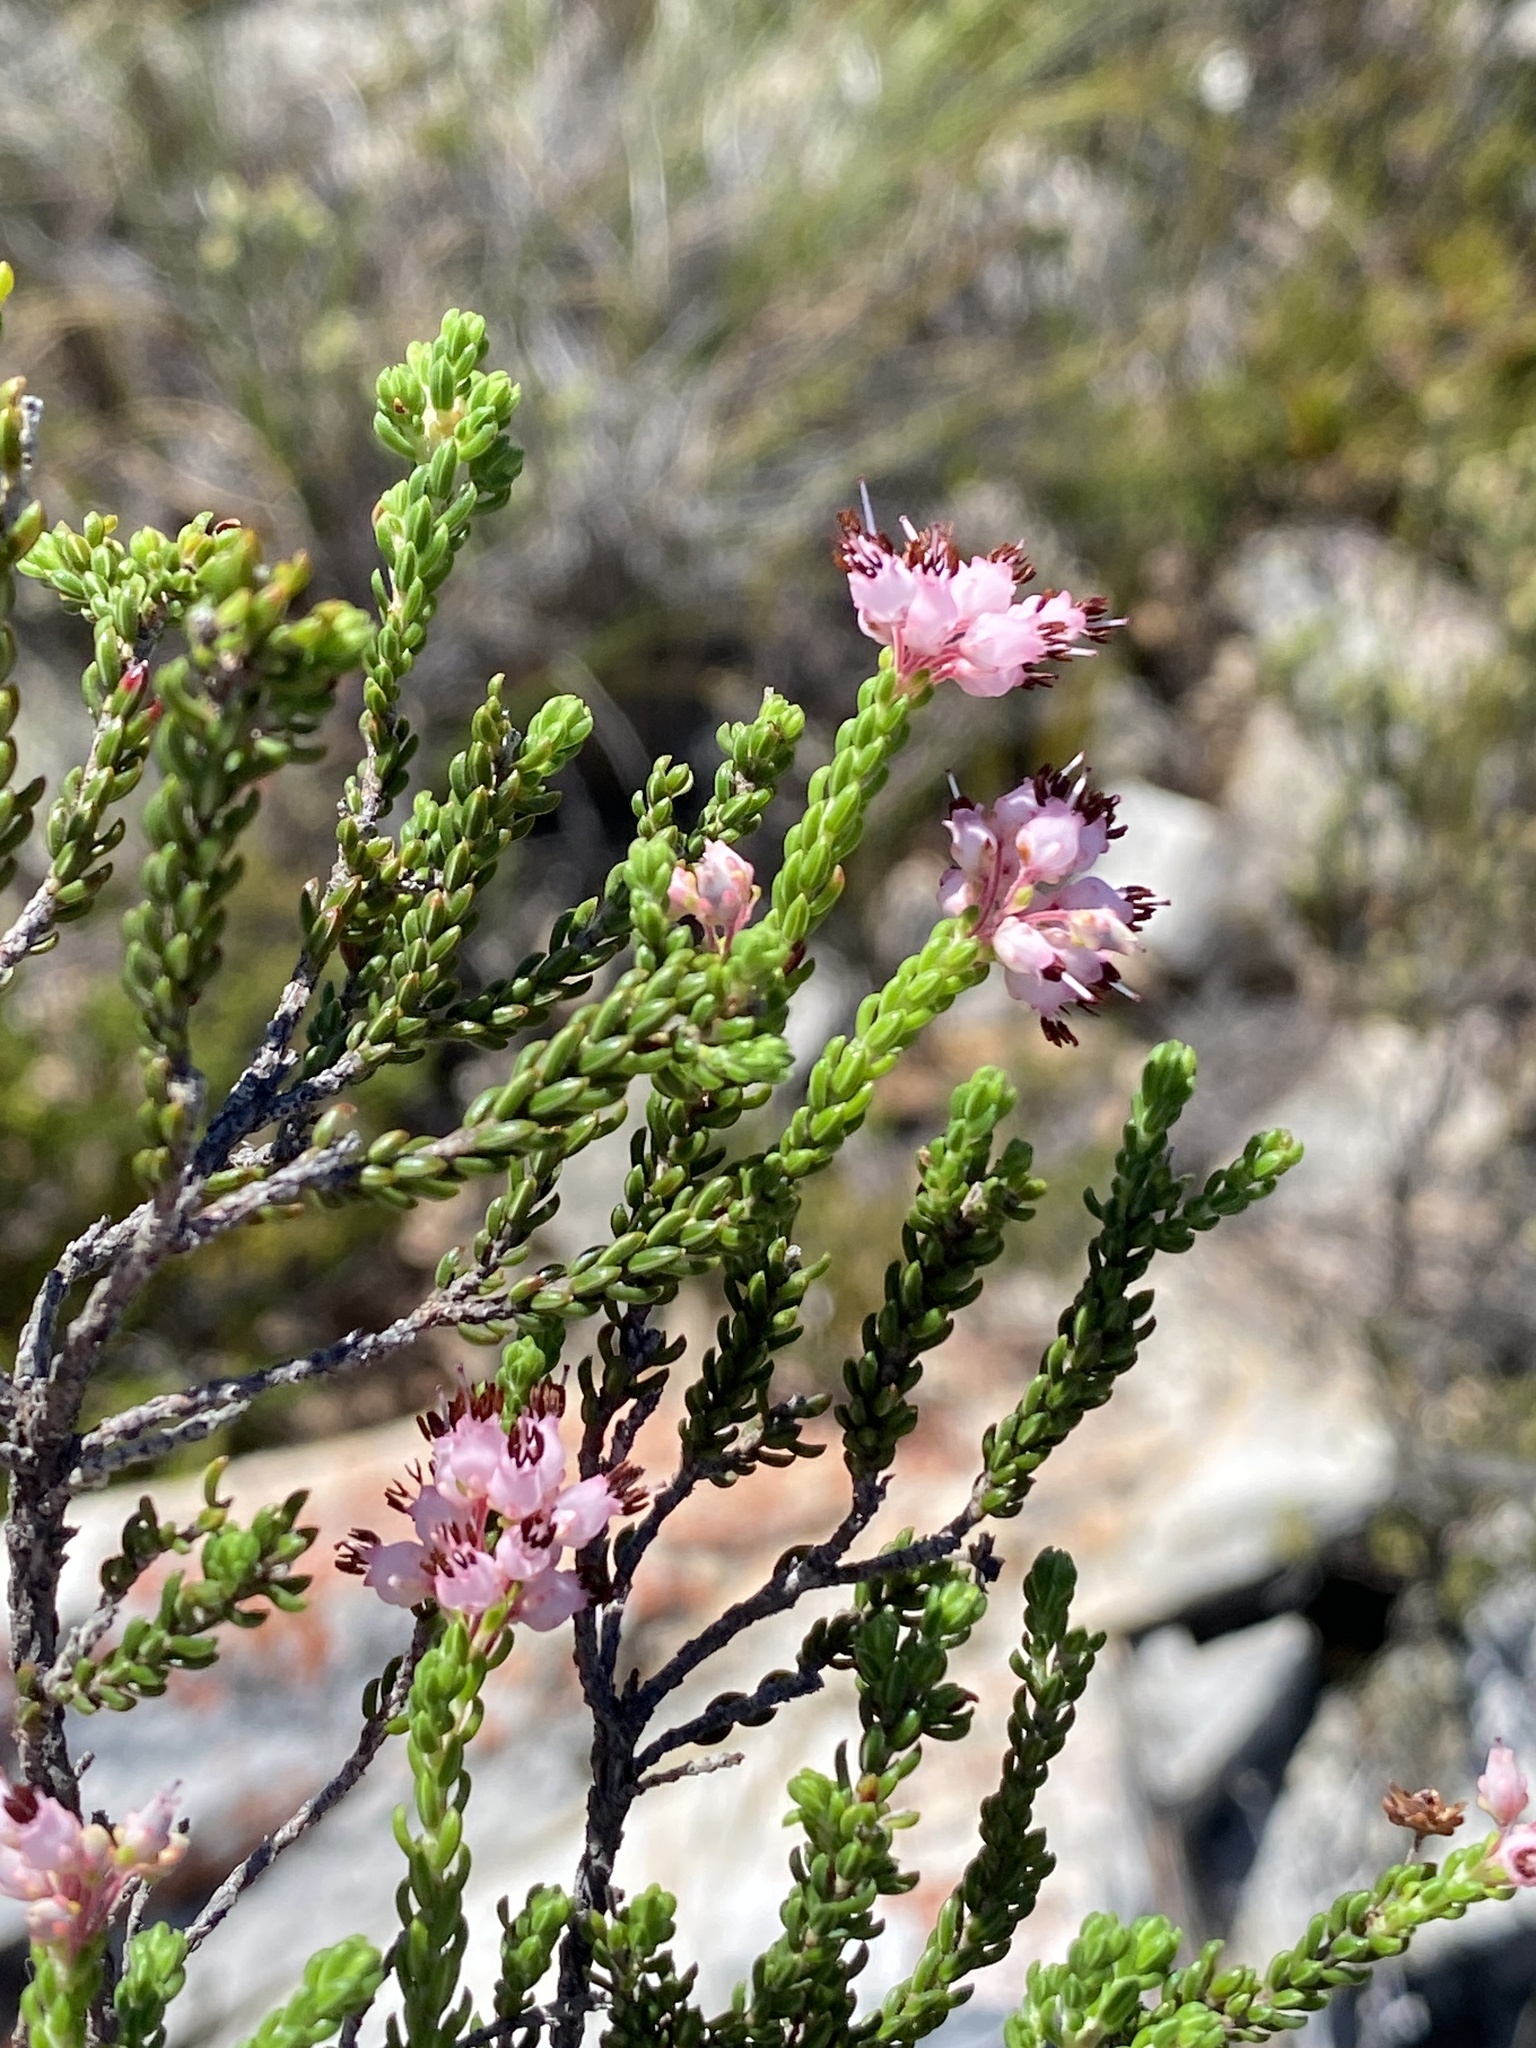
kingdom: Plantae
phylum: Tracheophyta
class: Magnoliopsida
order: Ericales
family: Ericaceae
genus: Erica
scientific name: Erica petraea
